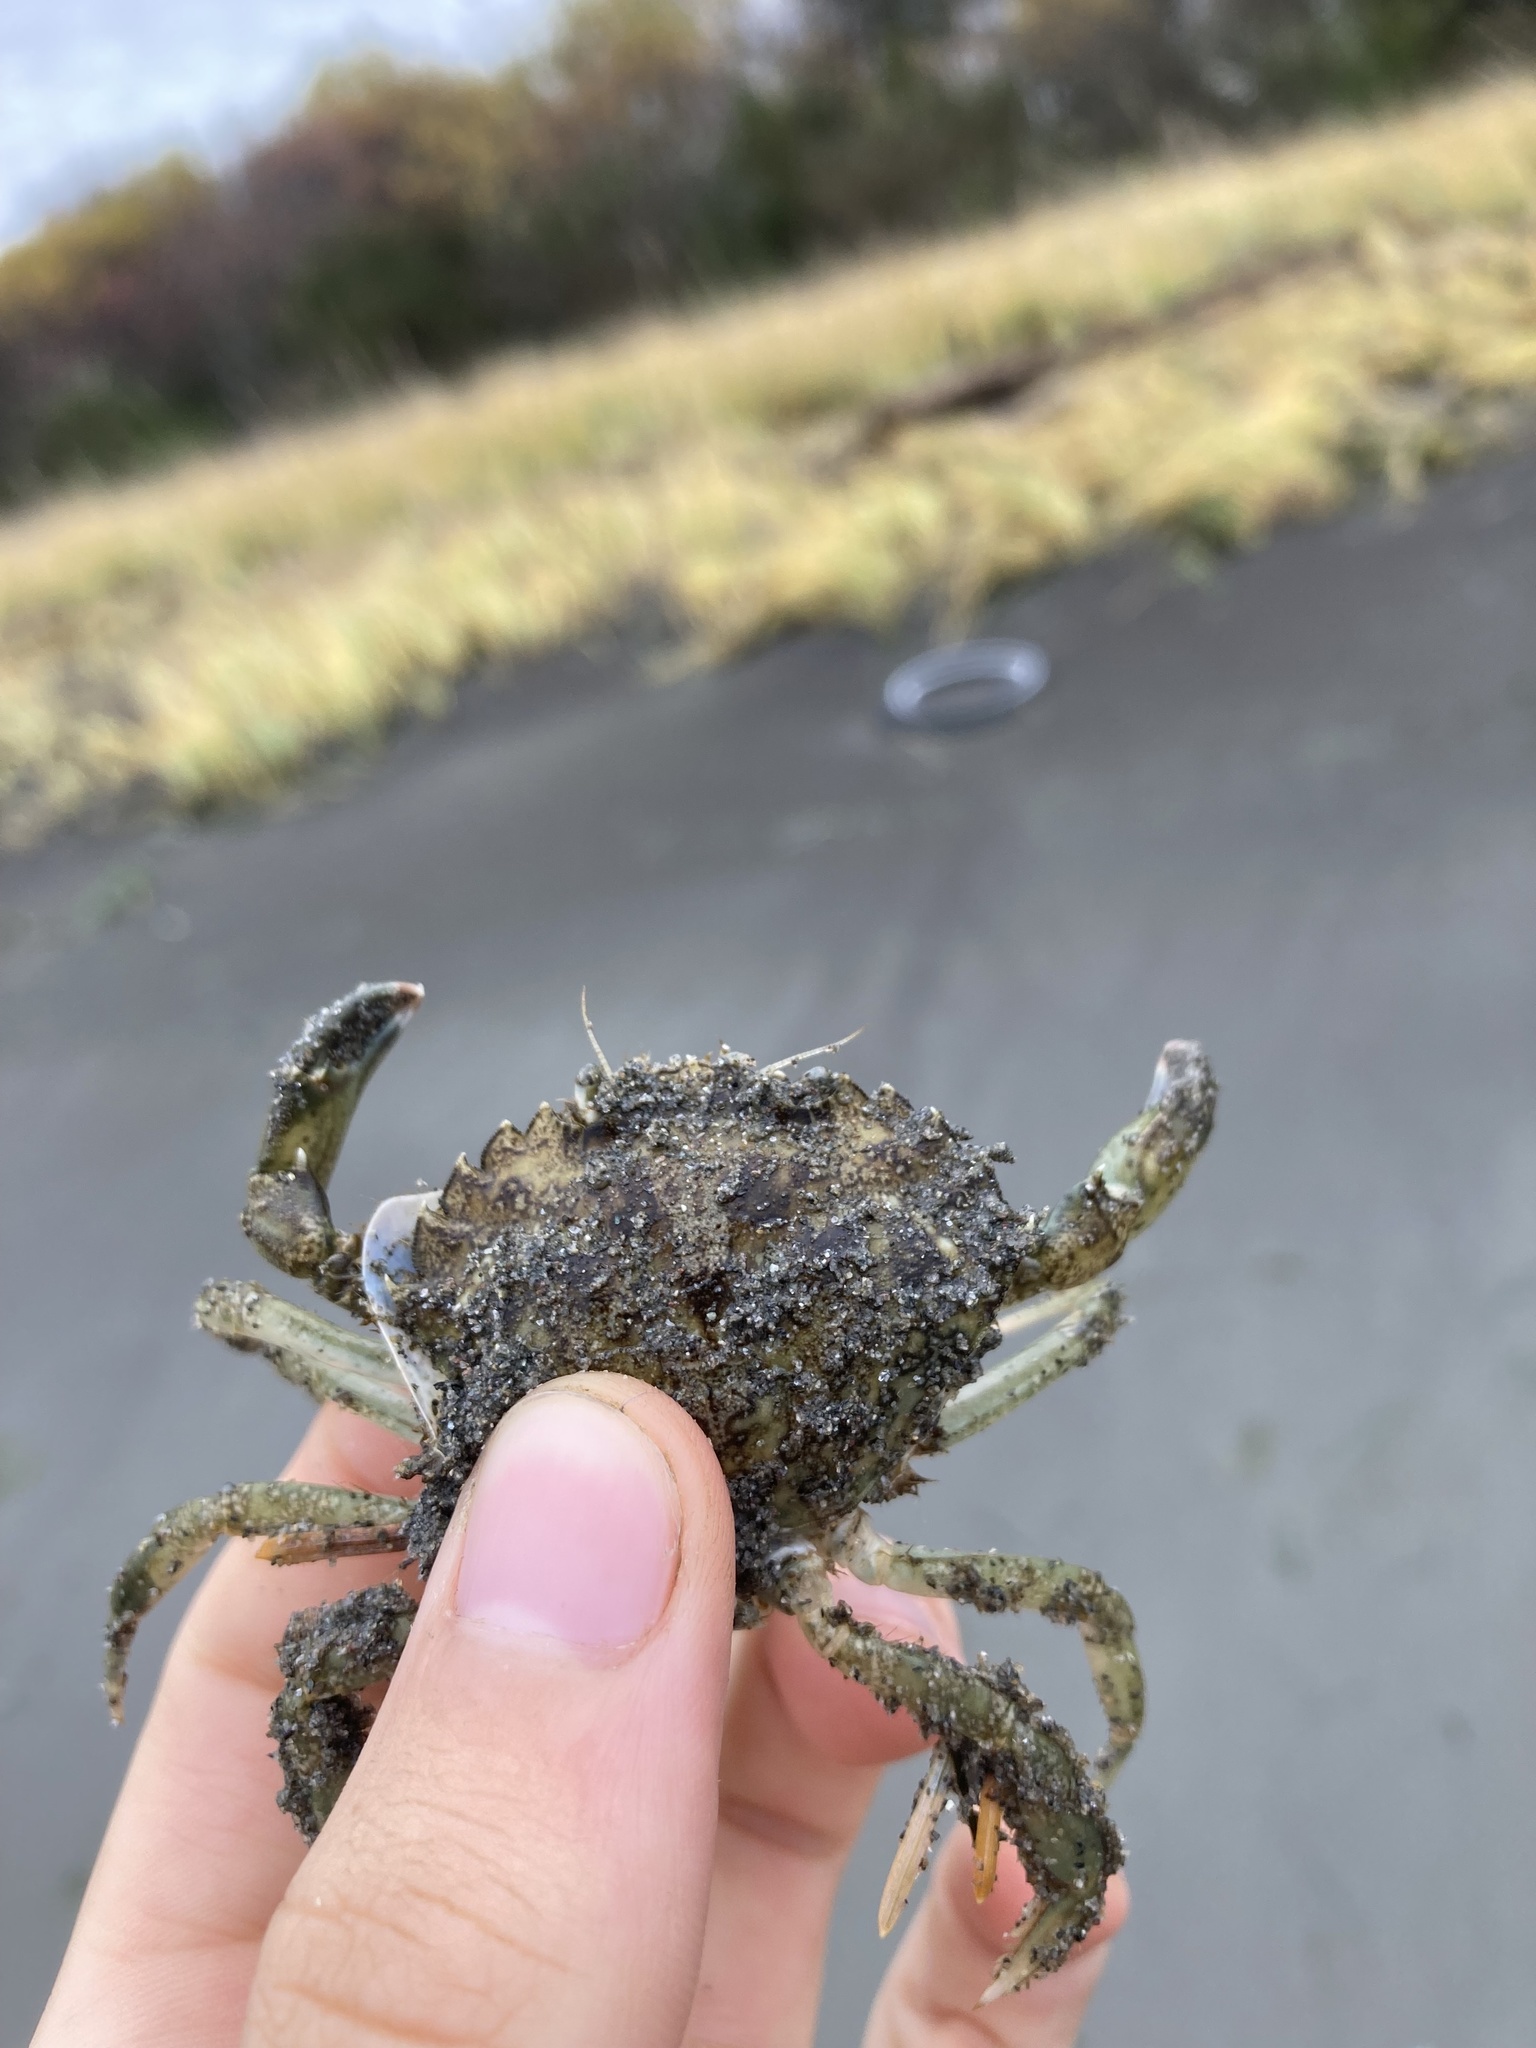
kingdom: Animalia
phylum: Arthropoda
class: Malacostraca
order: Decapoda
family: Carcinidae
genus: Carcinus
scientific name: Carcinus maenas
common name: European green crab
